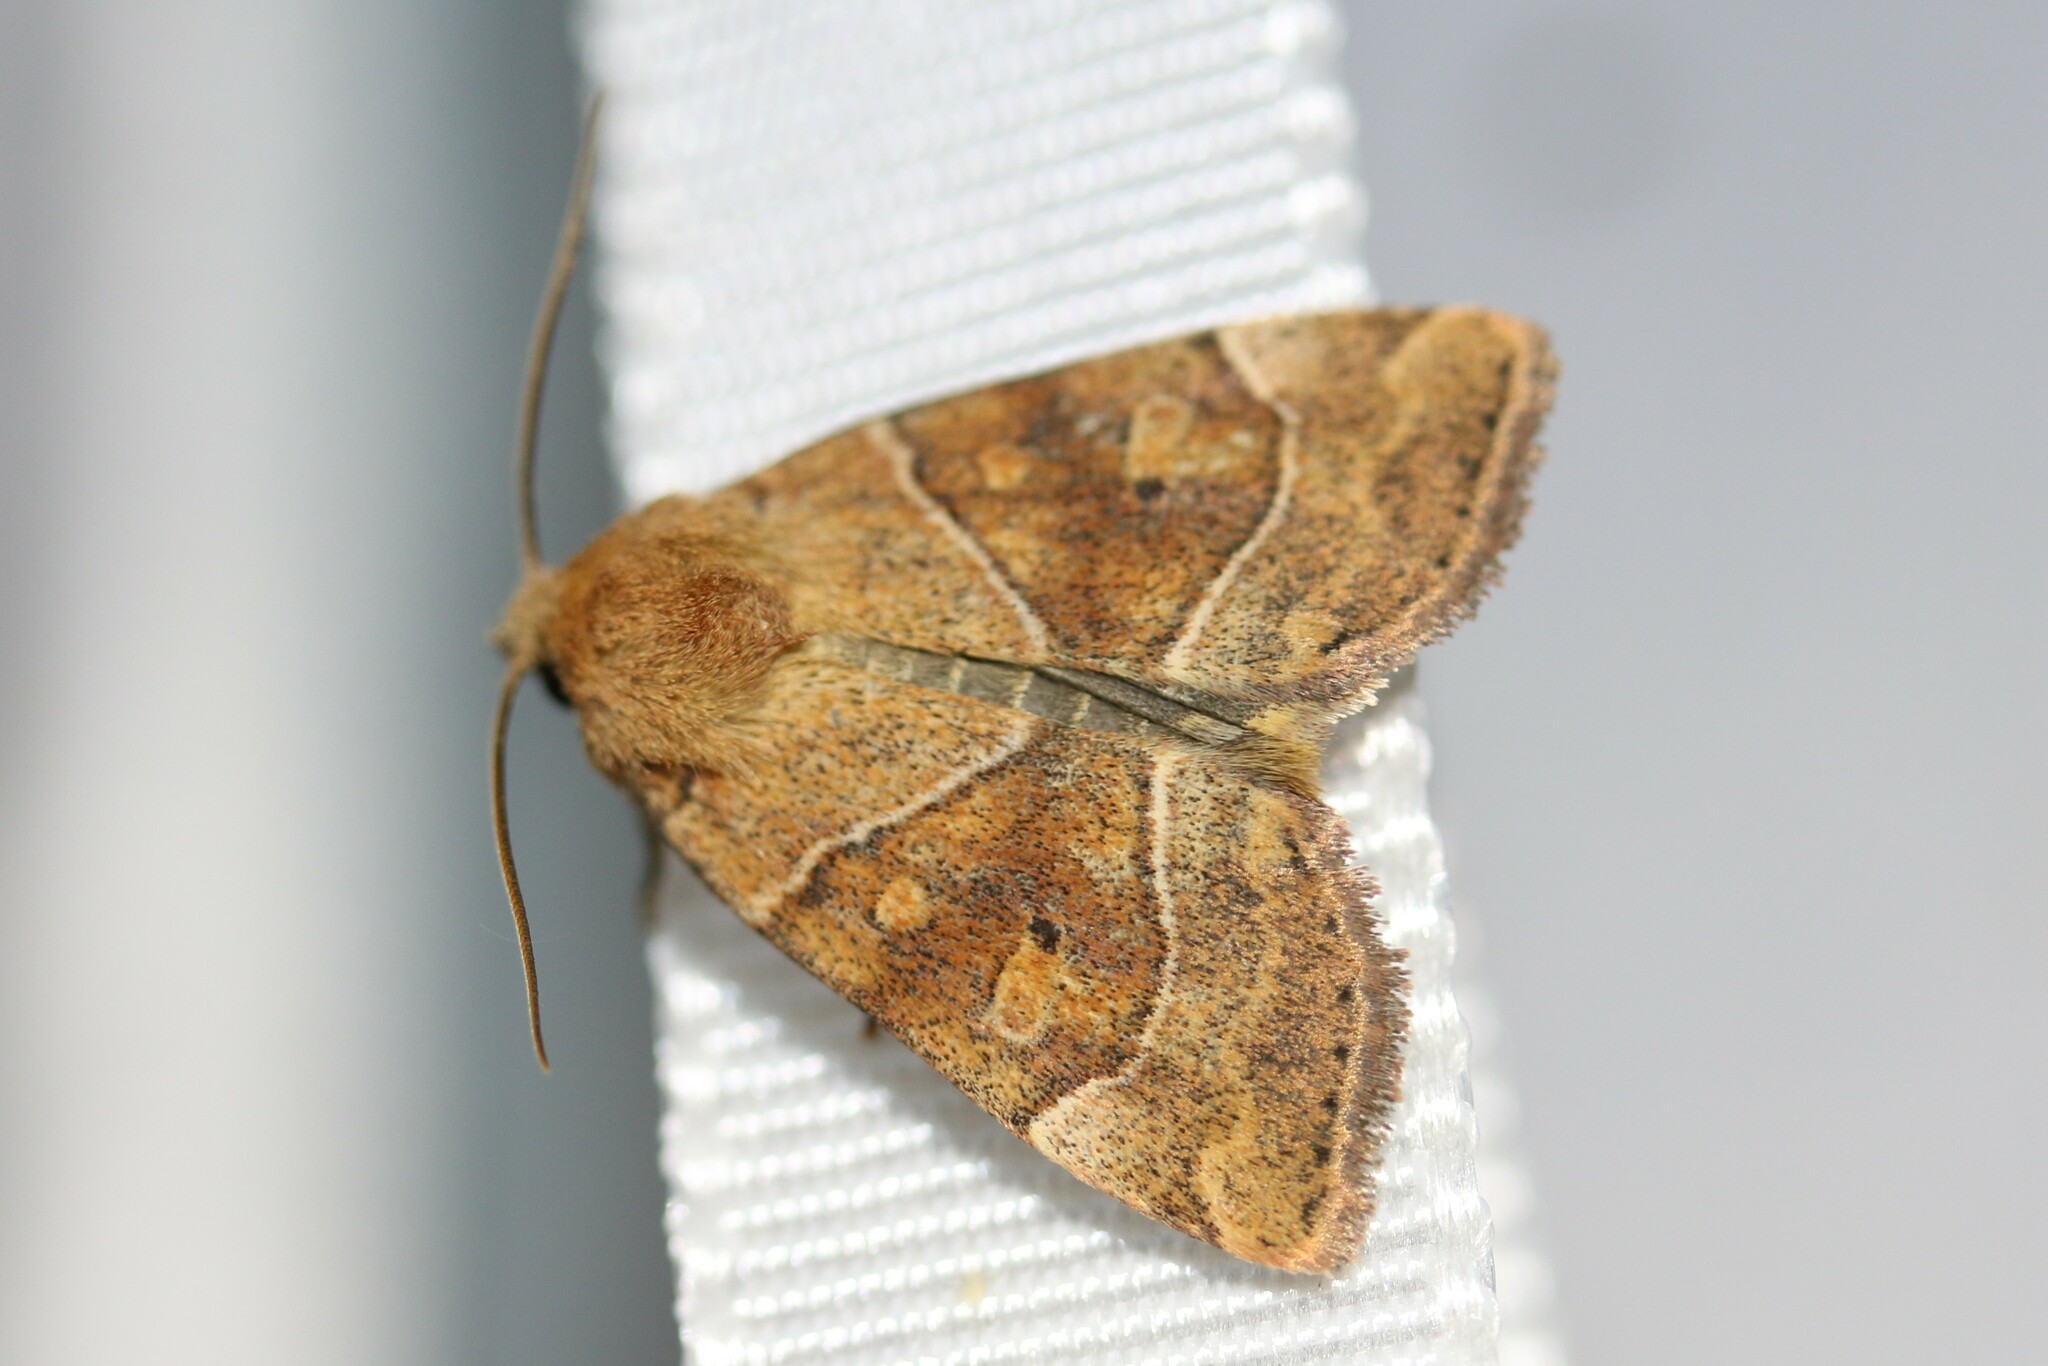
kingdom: Animalia
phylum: Arthropoda
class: Insecta
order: Lepidoptera
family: Noctuidae
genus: Cosmia
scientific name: Cosmia trapezina
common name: Dun-bar
